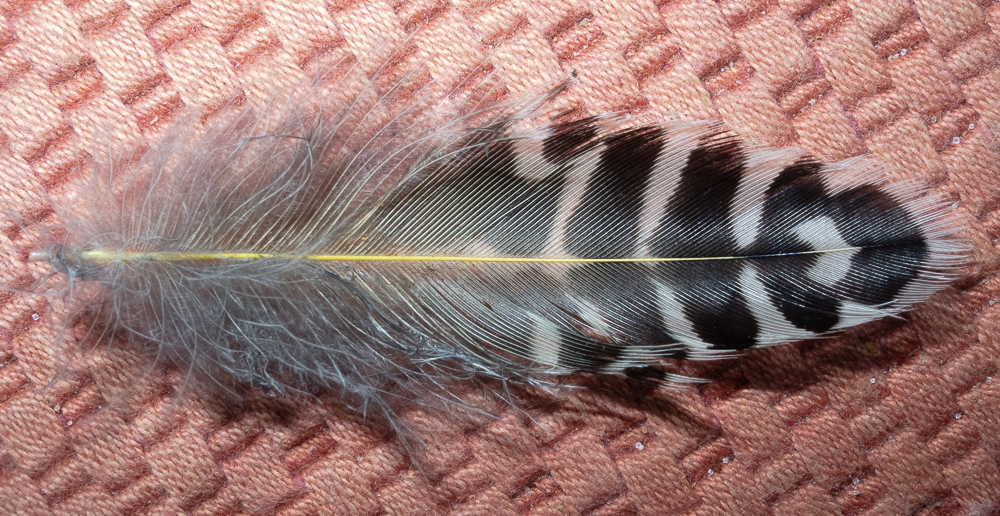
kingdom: Animalia
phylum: Chordata
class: Aves
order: Piciformes
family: Picidae
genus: Colaptes
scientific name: Colaptes auratus
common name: Northern flicker
